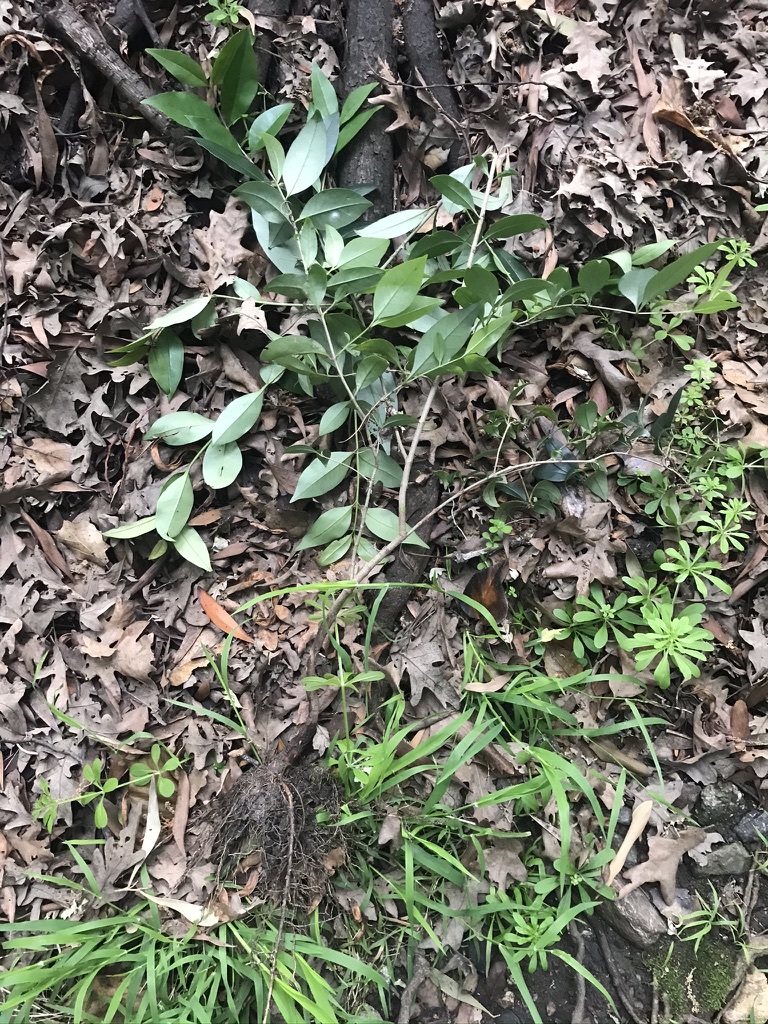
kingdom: Plantae
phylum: Tracheophyta
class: Magnoliopsida
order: Lamiales
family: Oleaceae
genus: Ligustrum
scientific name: Ligustrum lucidum
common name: Glossy privet
